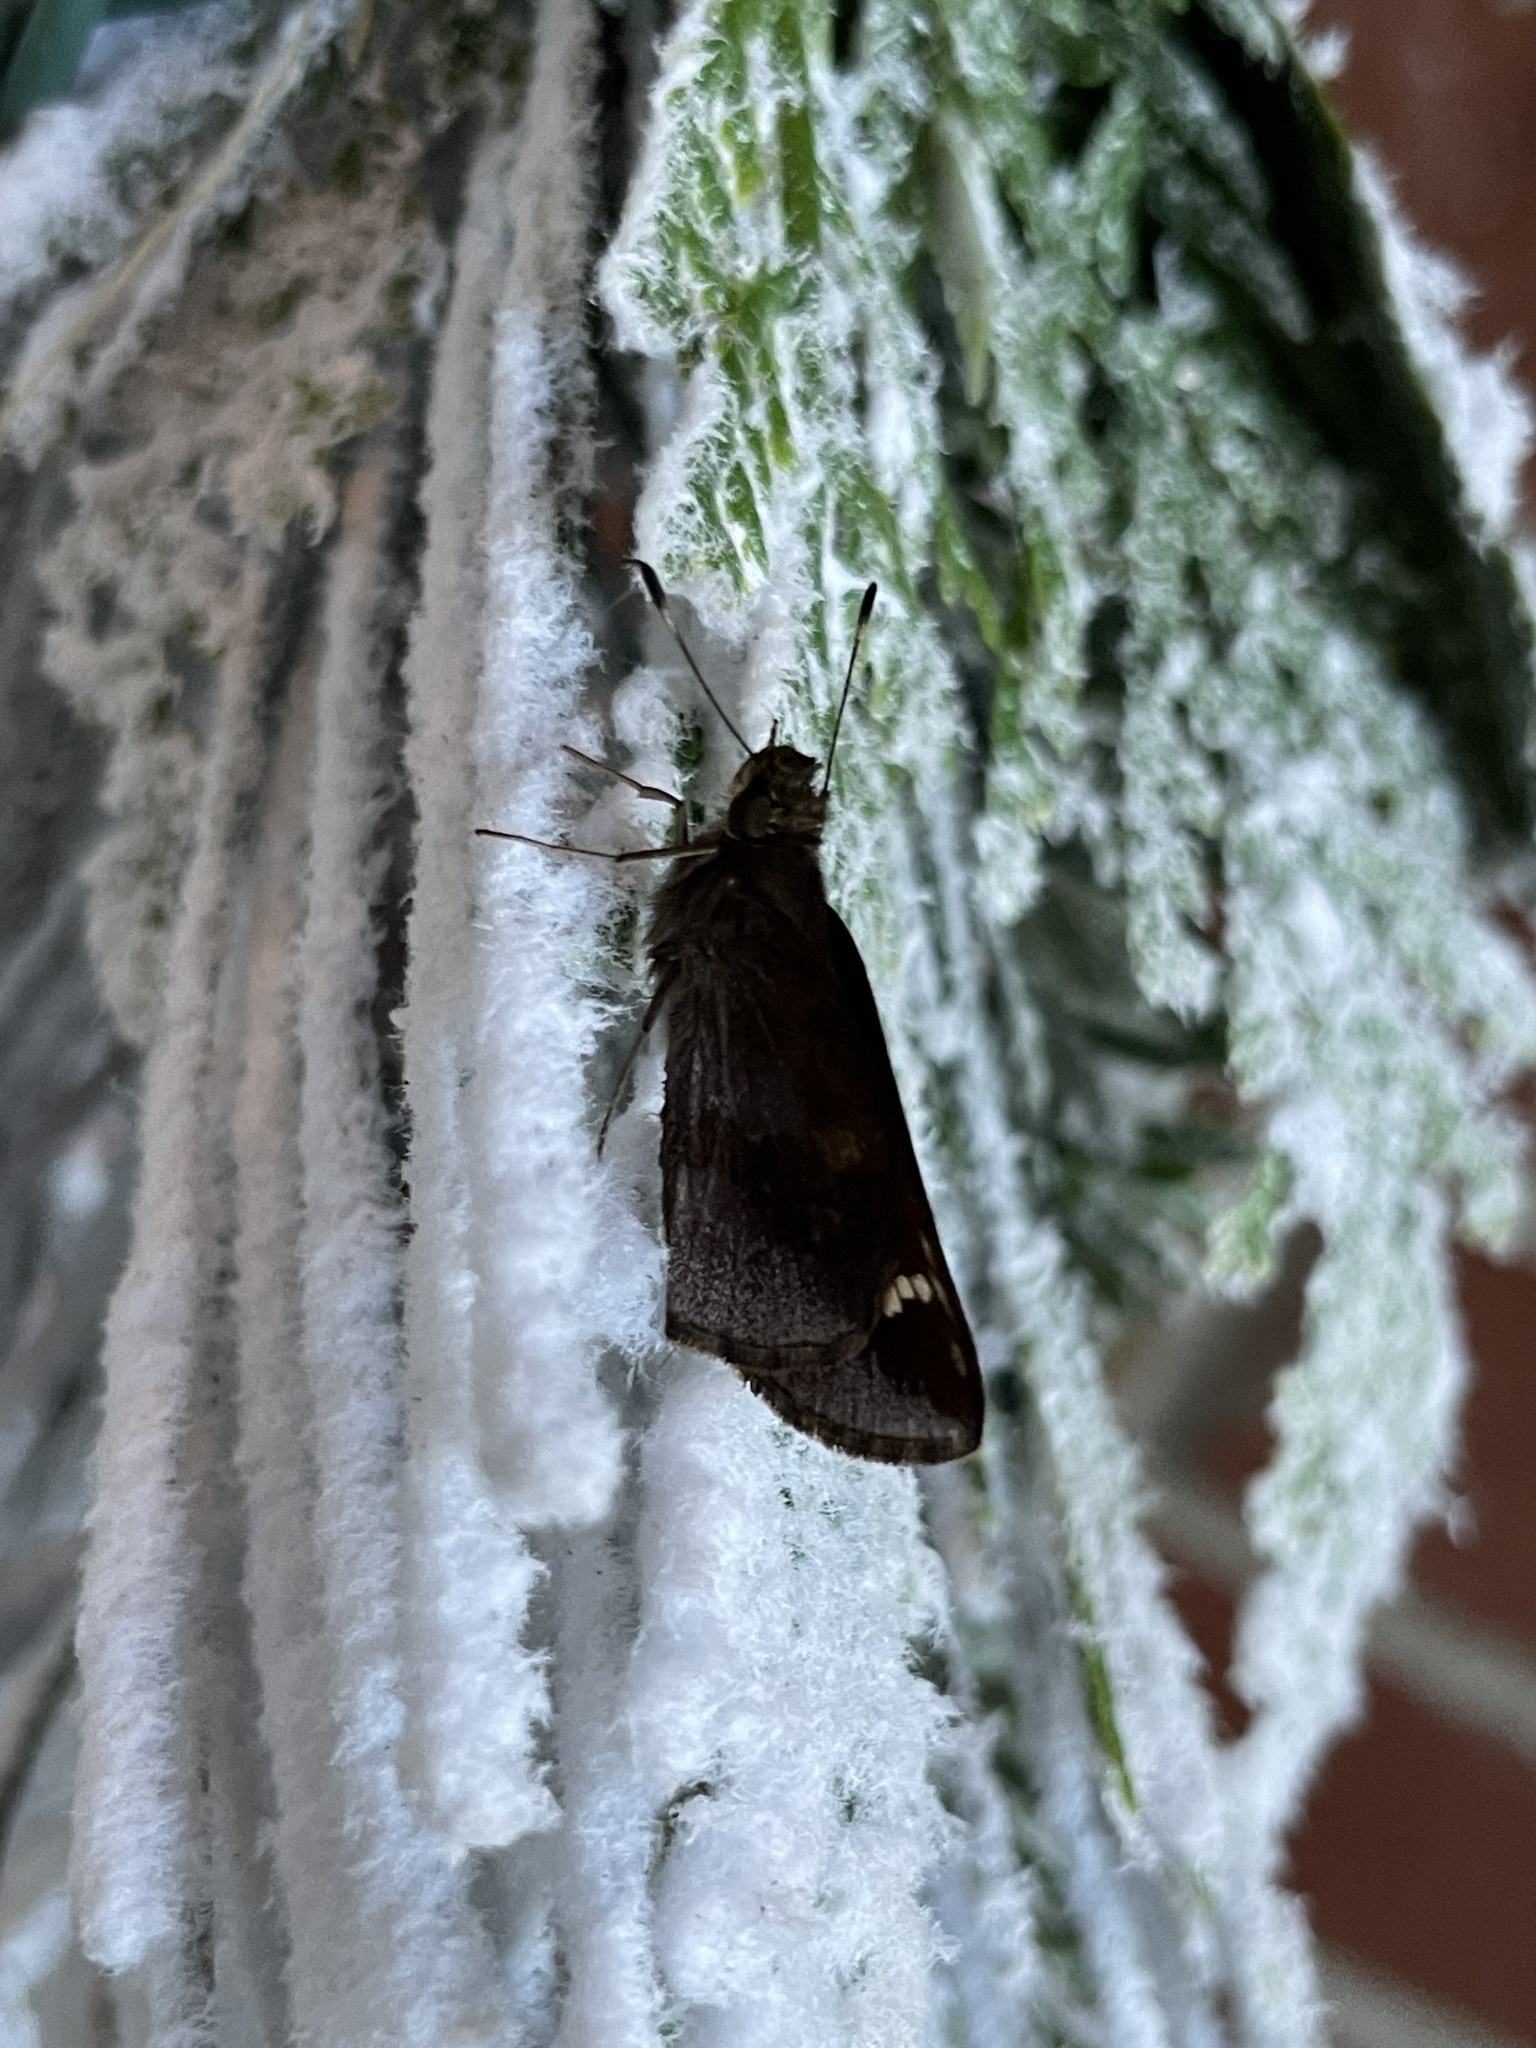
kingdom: Animalia
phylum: Arthropoda
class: Insecta
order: Lepidoptera
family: Hesperiidae
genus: Lerema
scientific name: Lerema accius
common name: Clouded skipper
